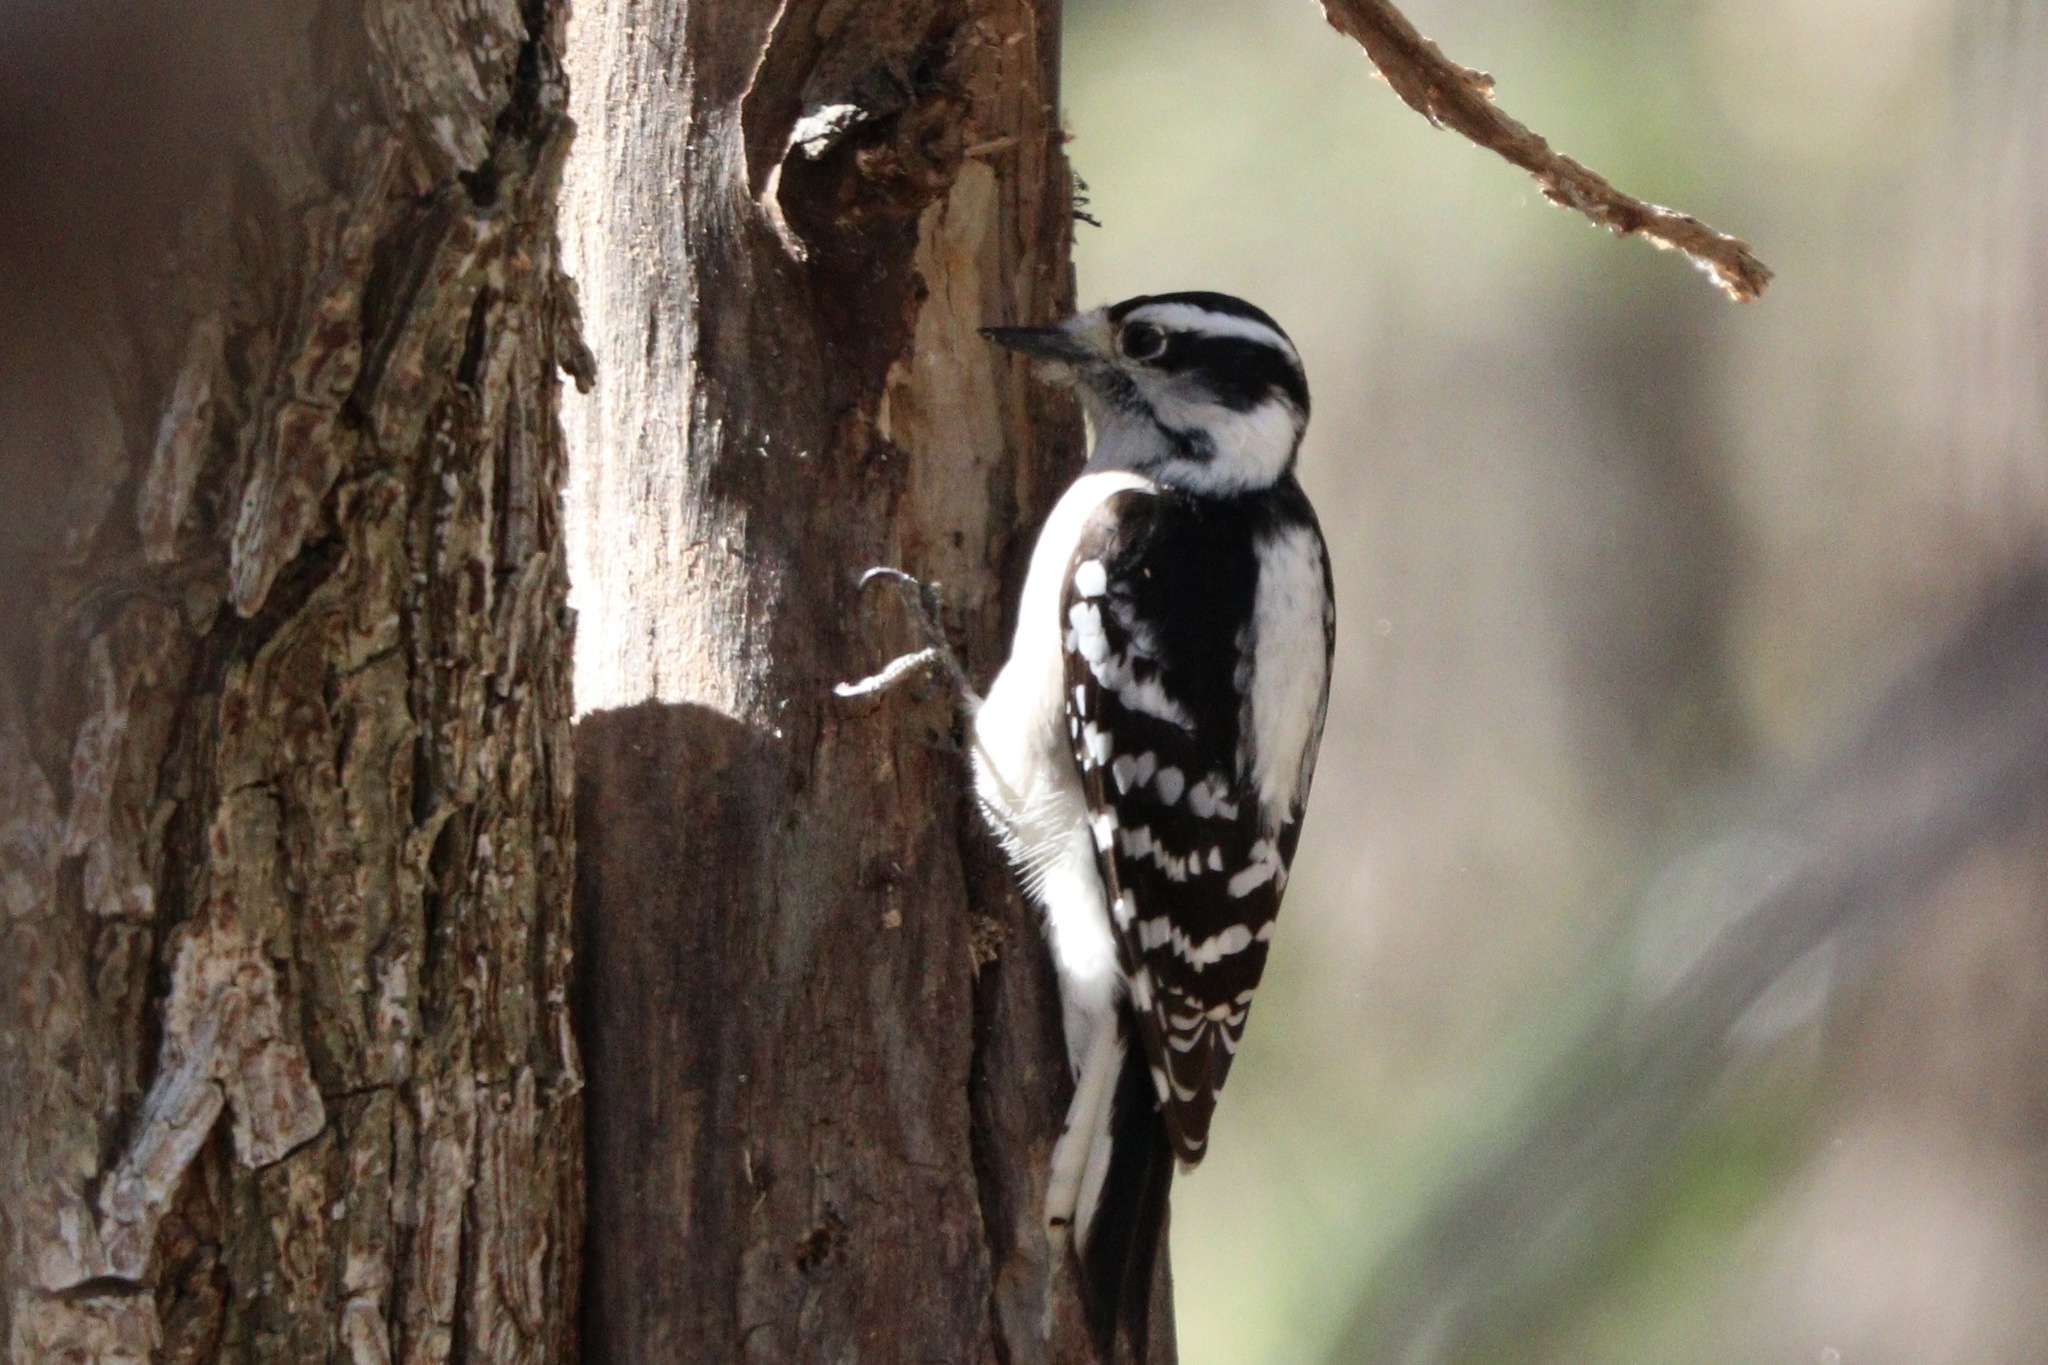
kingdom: Animalia
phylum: Chordata
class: Aves
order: Piciformes
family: Picidae
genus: Dryobates
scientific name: Dryobates pubescens
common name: Downy woodpecker
